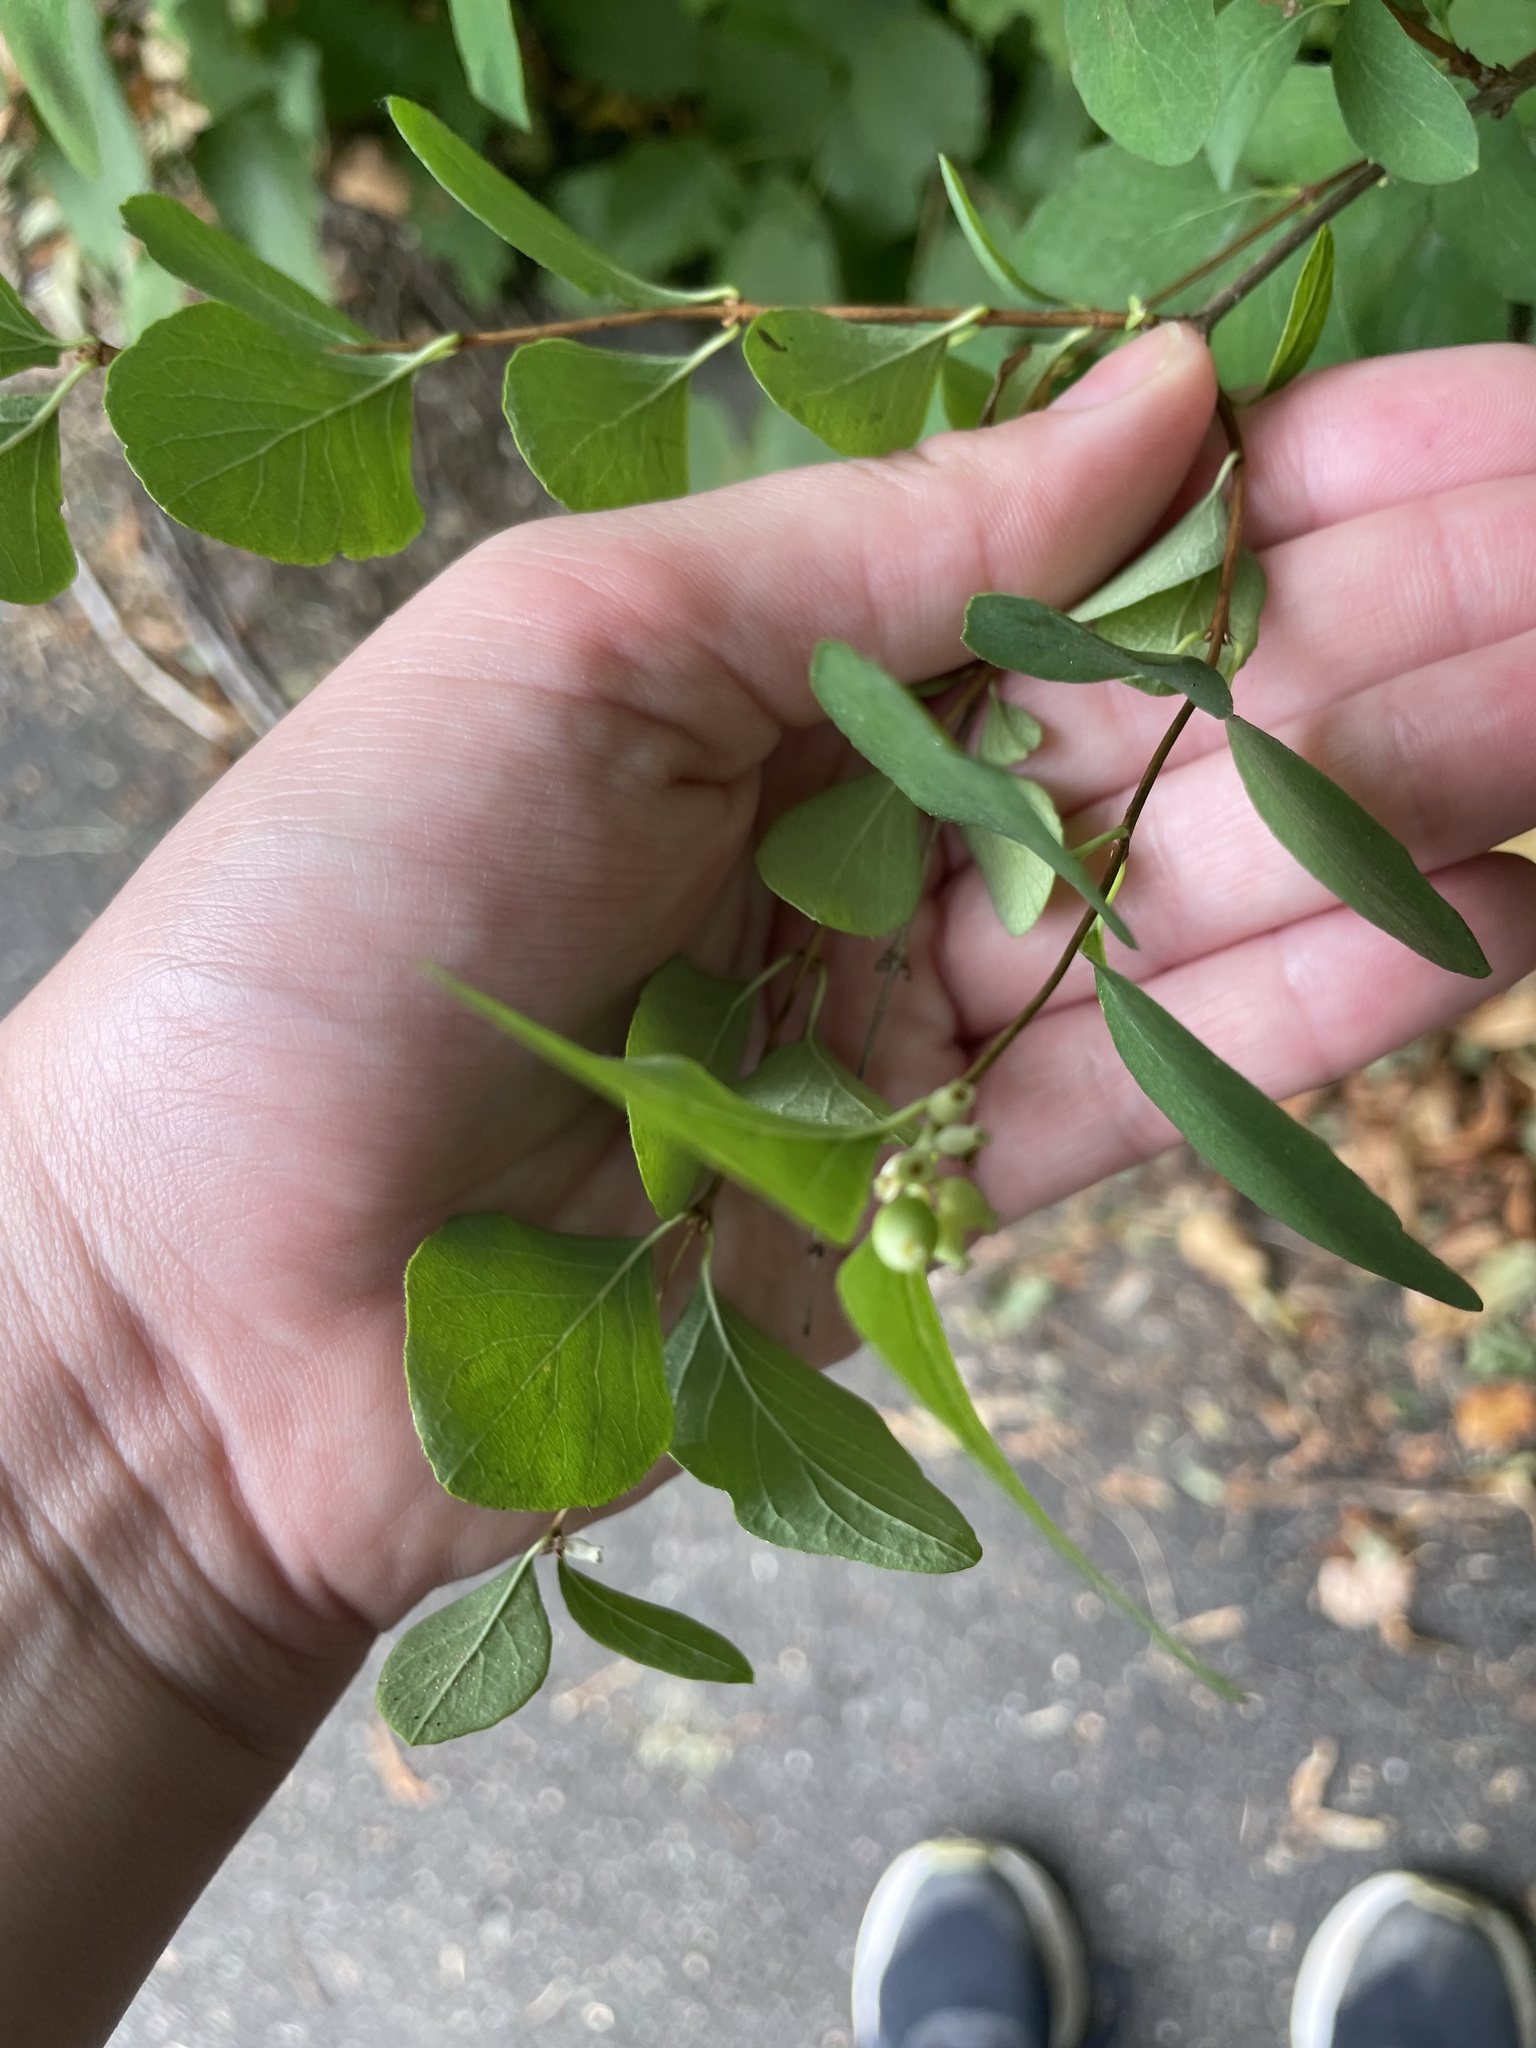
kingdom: Plantae
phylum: Tracheophyta
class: Magnoliopsida
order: Dipsacales
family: Caprifoliaceae
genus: Symphoricarpos
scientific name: Symphoricarpos albus
